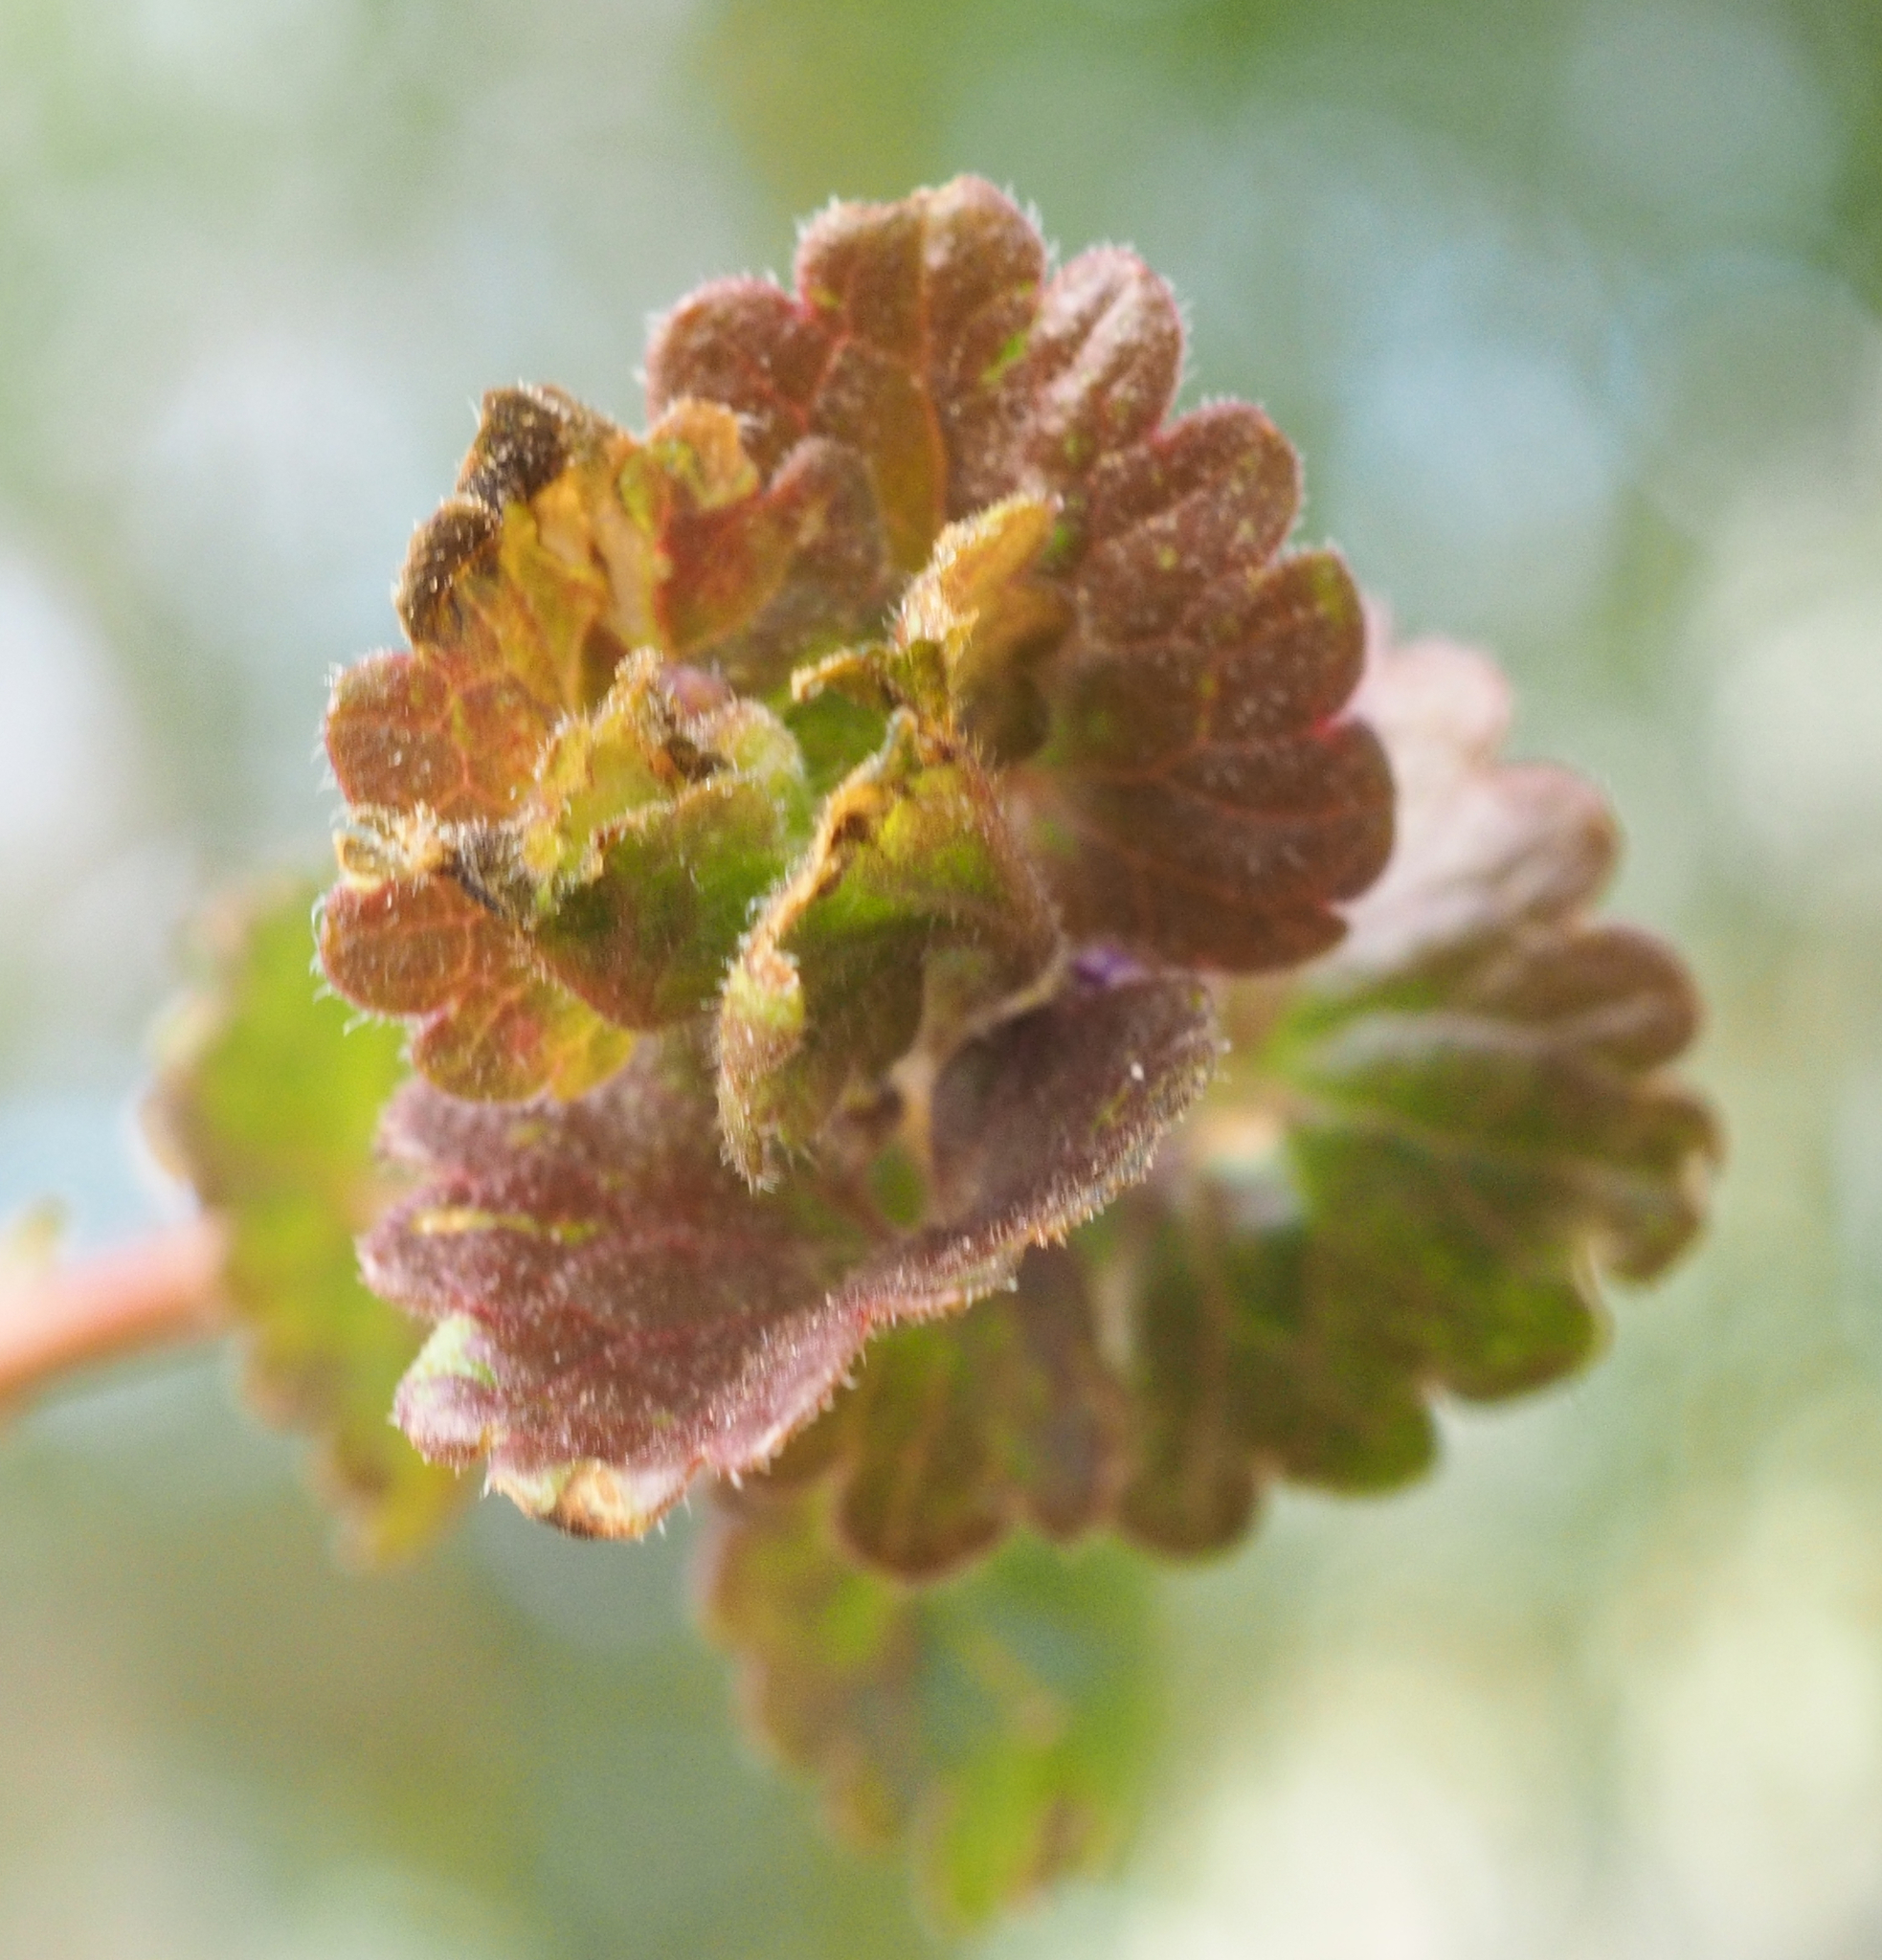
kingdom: Plantae
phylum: Tracheophyta
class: Magnoliopsida
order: Lamiales
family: Lamiaceae
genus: Glechoma
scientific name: Glechoma hederacea
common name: Ground ivy
